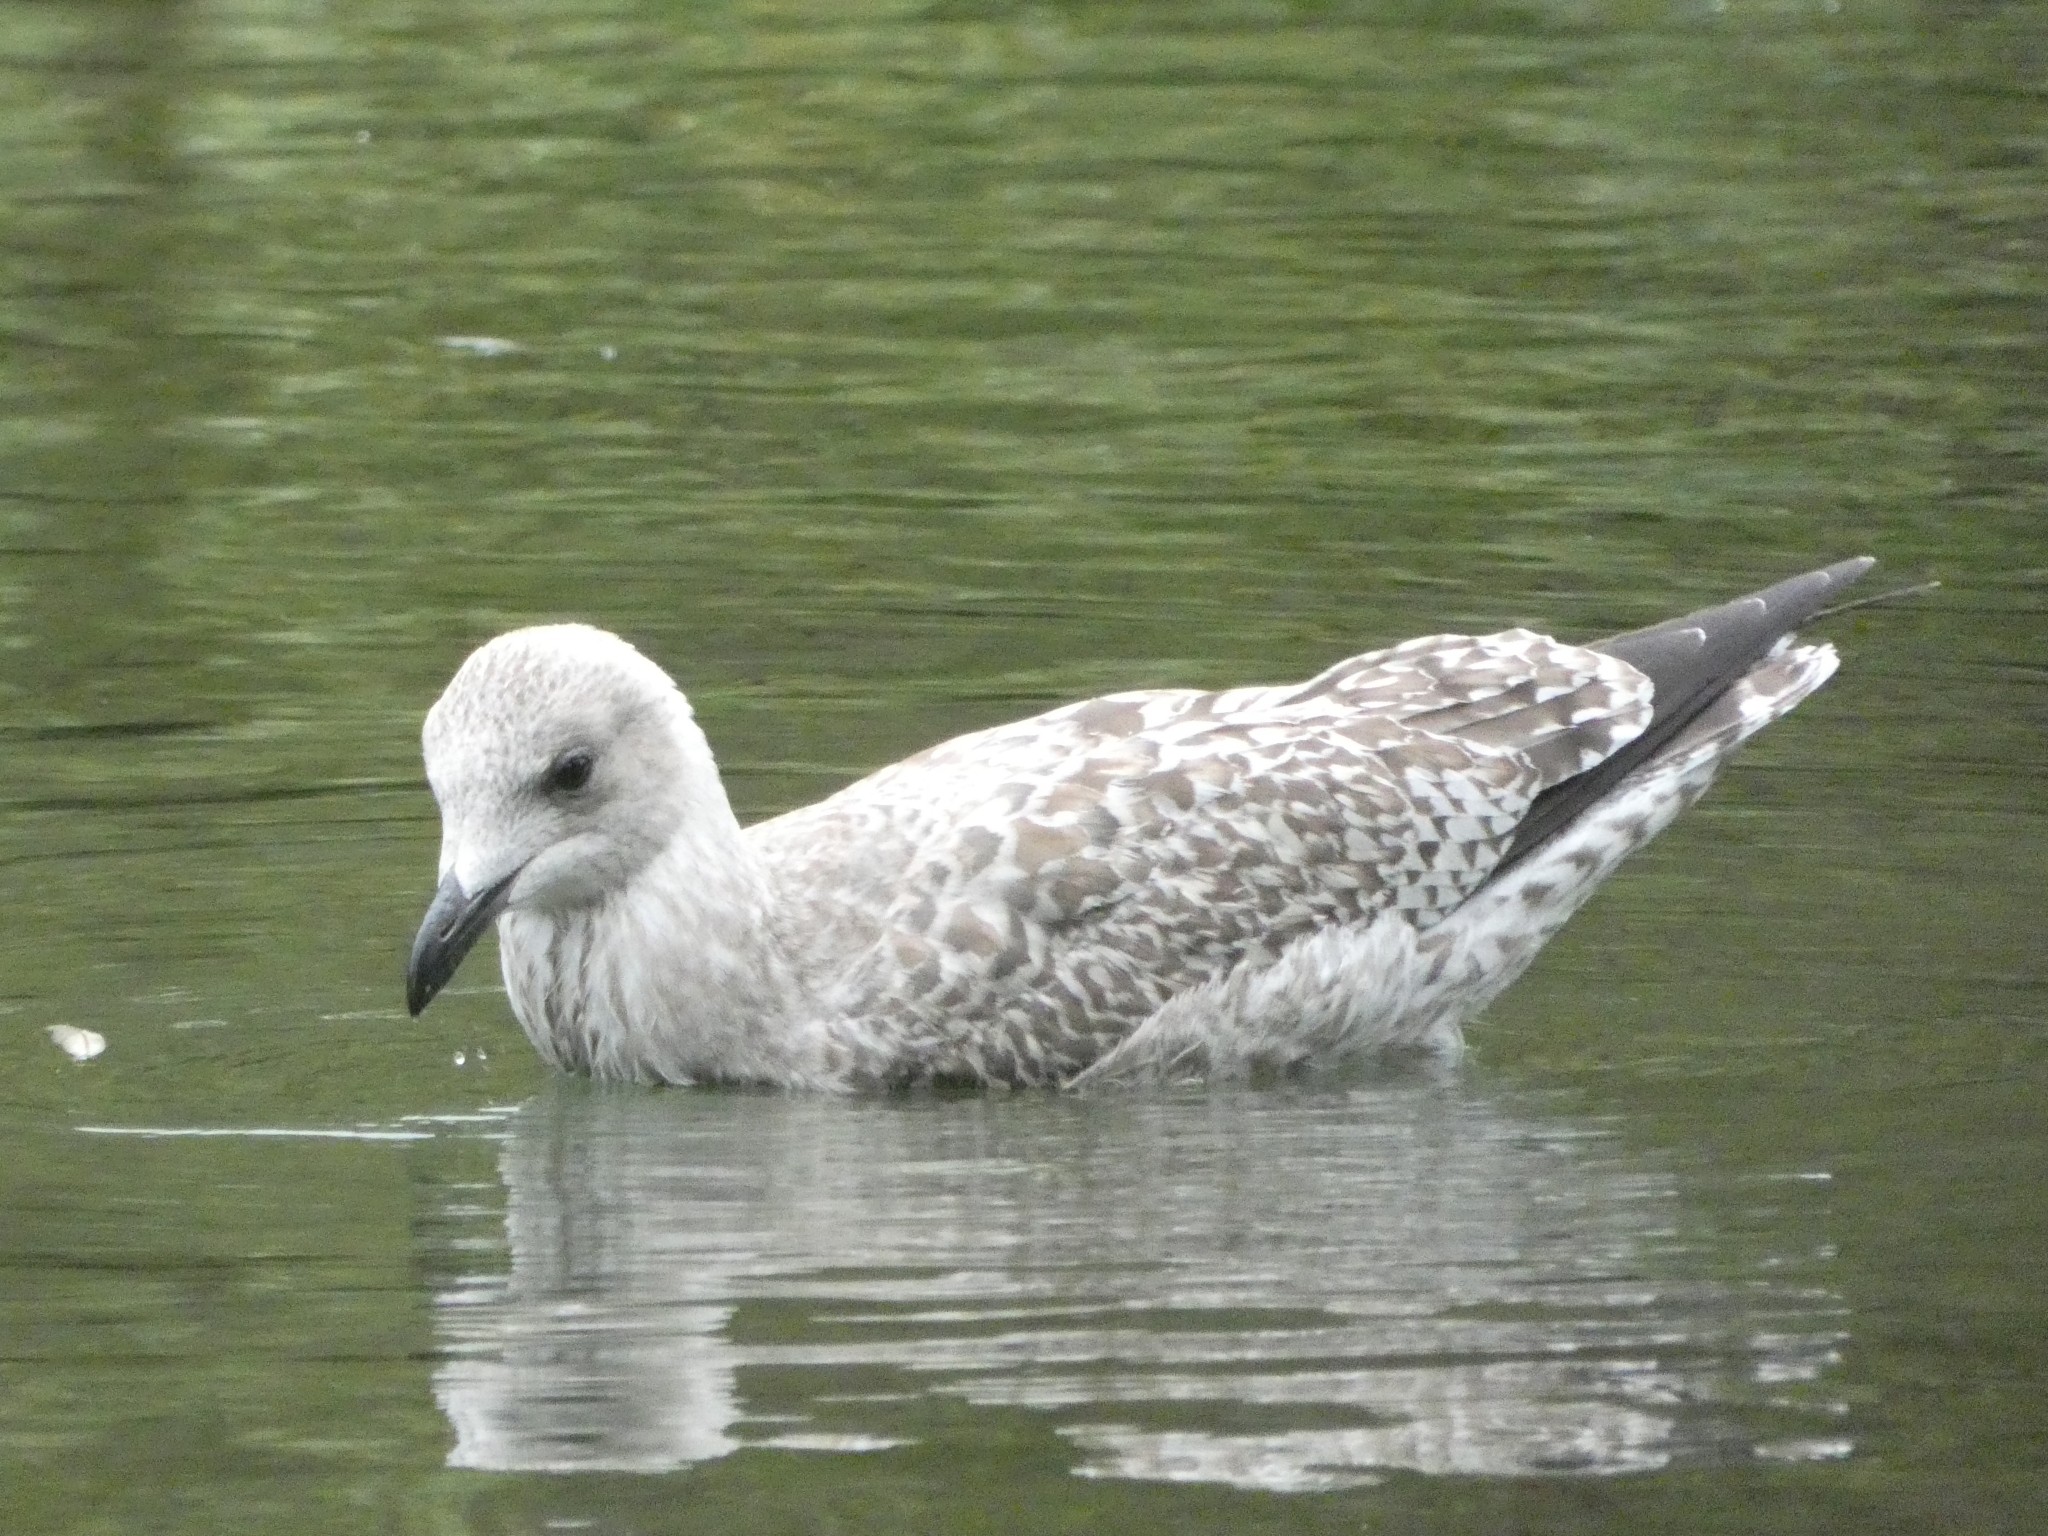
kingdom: Animalia
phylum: Chordata
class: Aves
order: Charadriiformes
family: Laridae
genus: Larus
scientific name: Larus argentatus
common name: Herring gull
